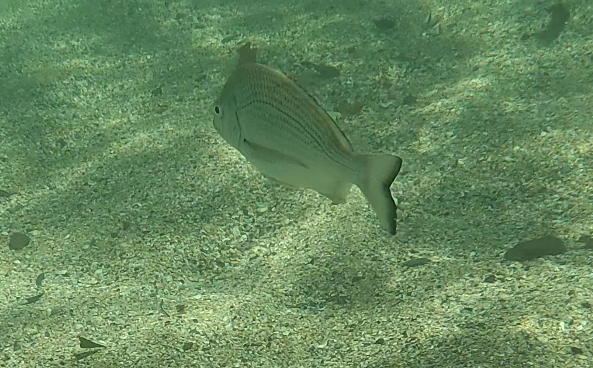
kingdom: Animalia
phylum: Chordata
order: Perciformes
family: Sparidae
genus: Acanthopagrus
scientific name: Acanthopagrus australis
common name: Surf bream
